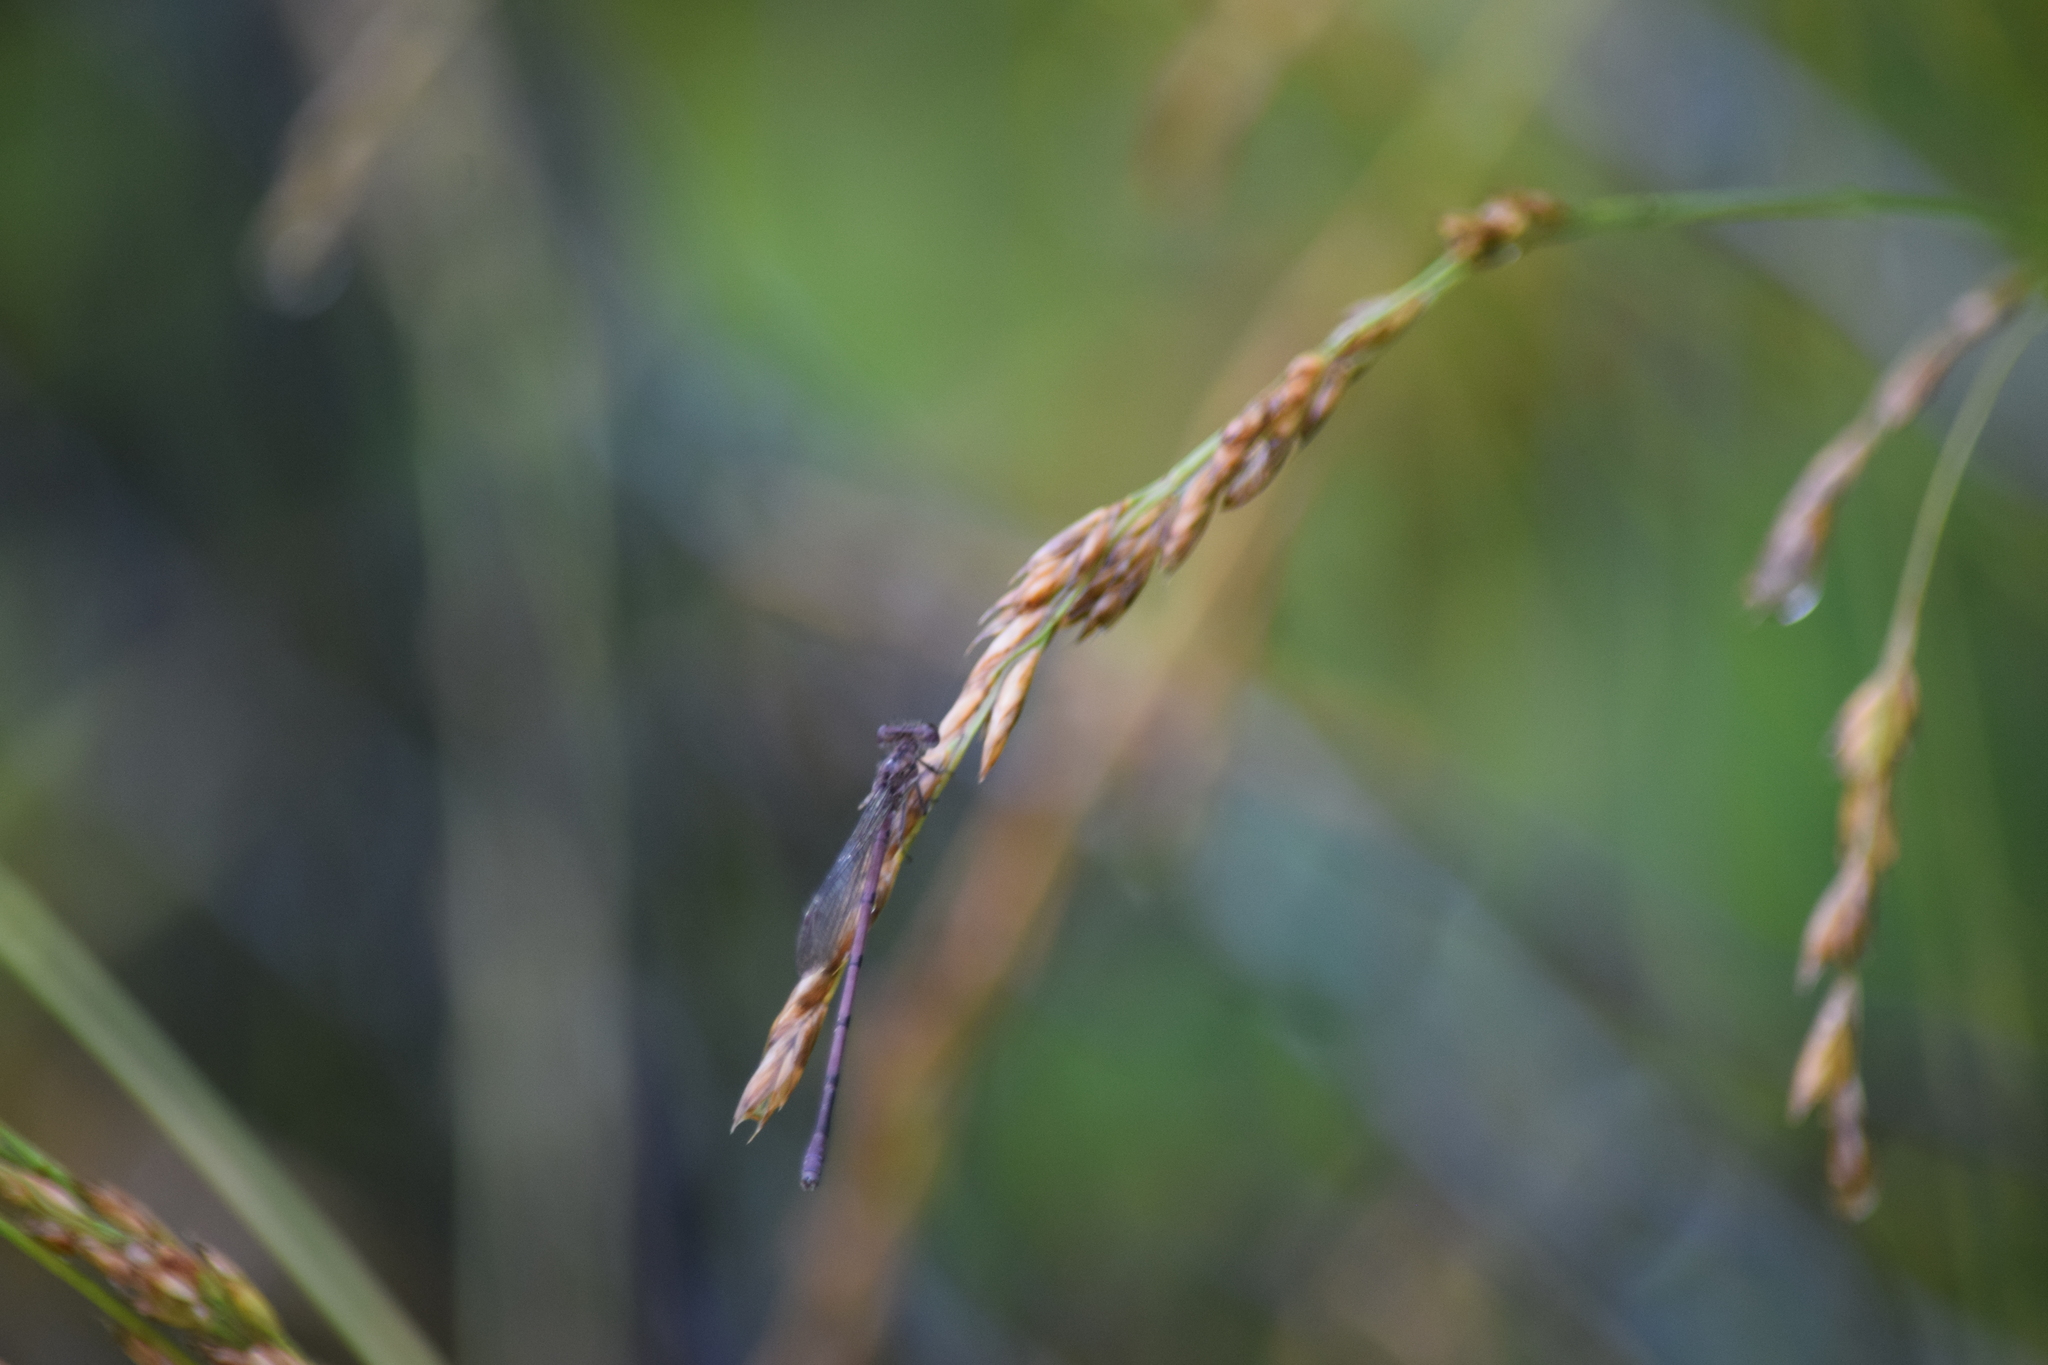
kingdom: Animalia
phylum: Arthropoda
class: Insecta
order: Odonata
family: Coenagrionidae
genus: Argia
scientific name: Argia fumipennis
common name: Variable dancer
